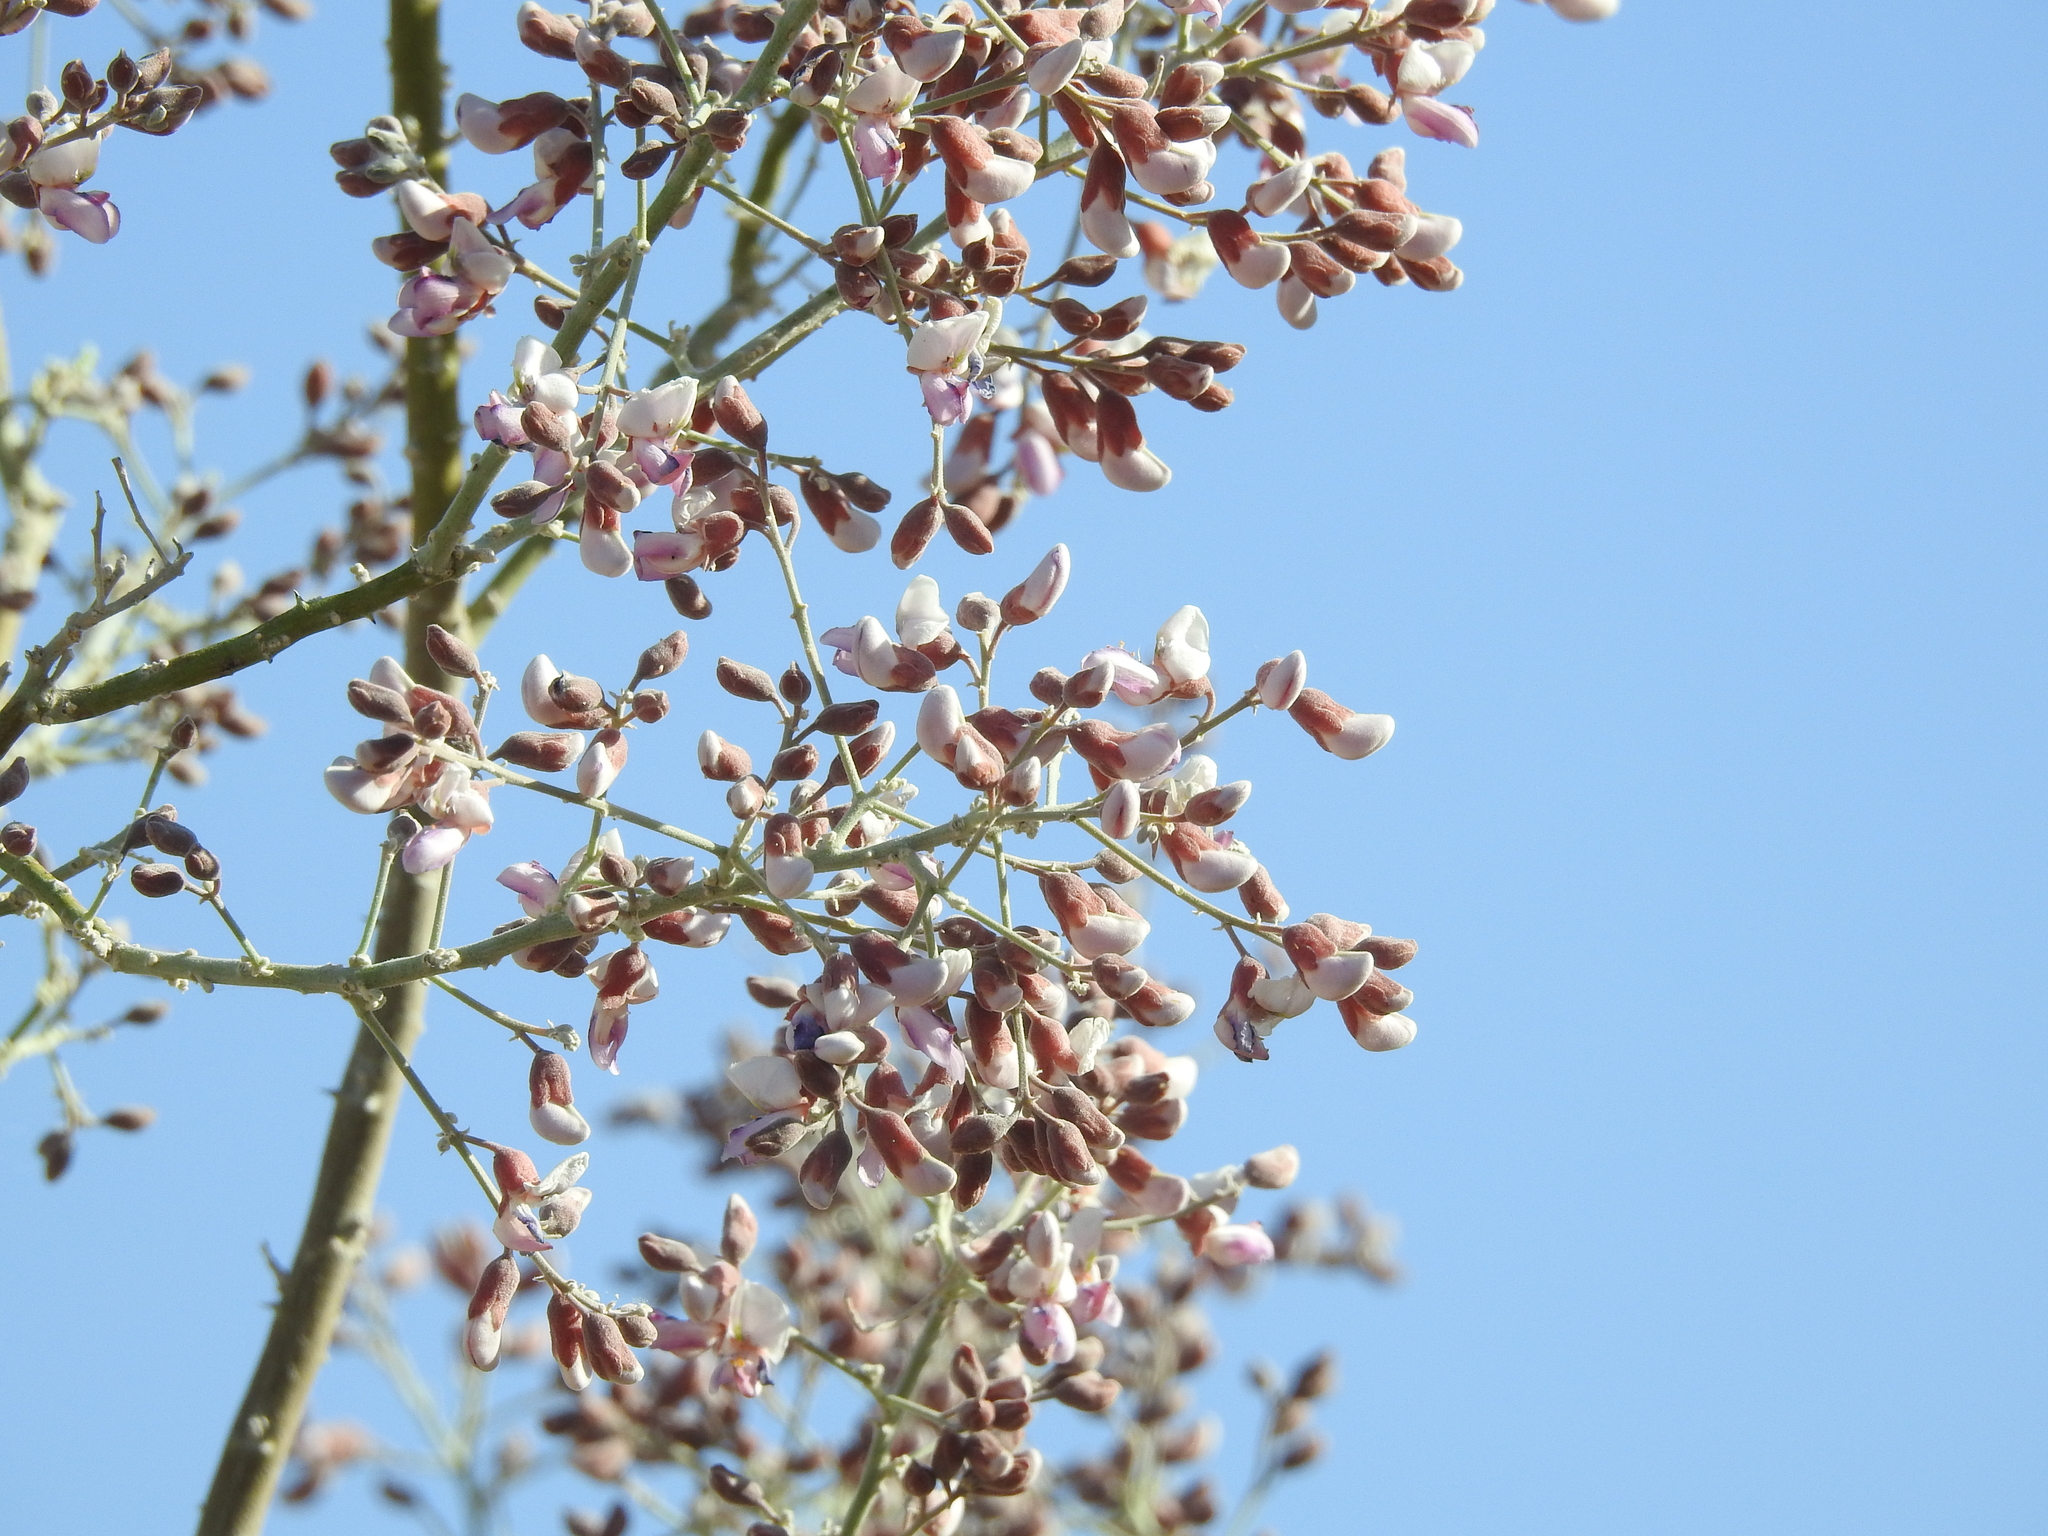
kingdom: Plantae
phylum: Tracheophyta
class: Magnoliopsida
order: Fabales
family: Fabaceae
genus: Olneya
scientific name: Olneya tesota
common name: Desert ironwood
